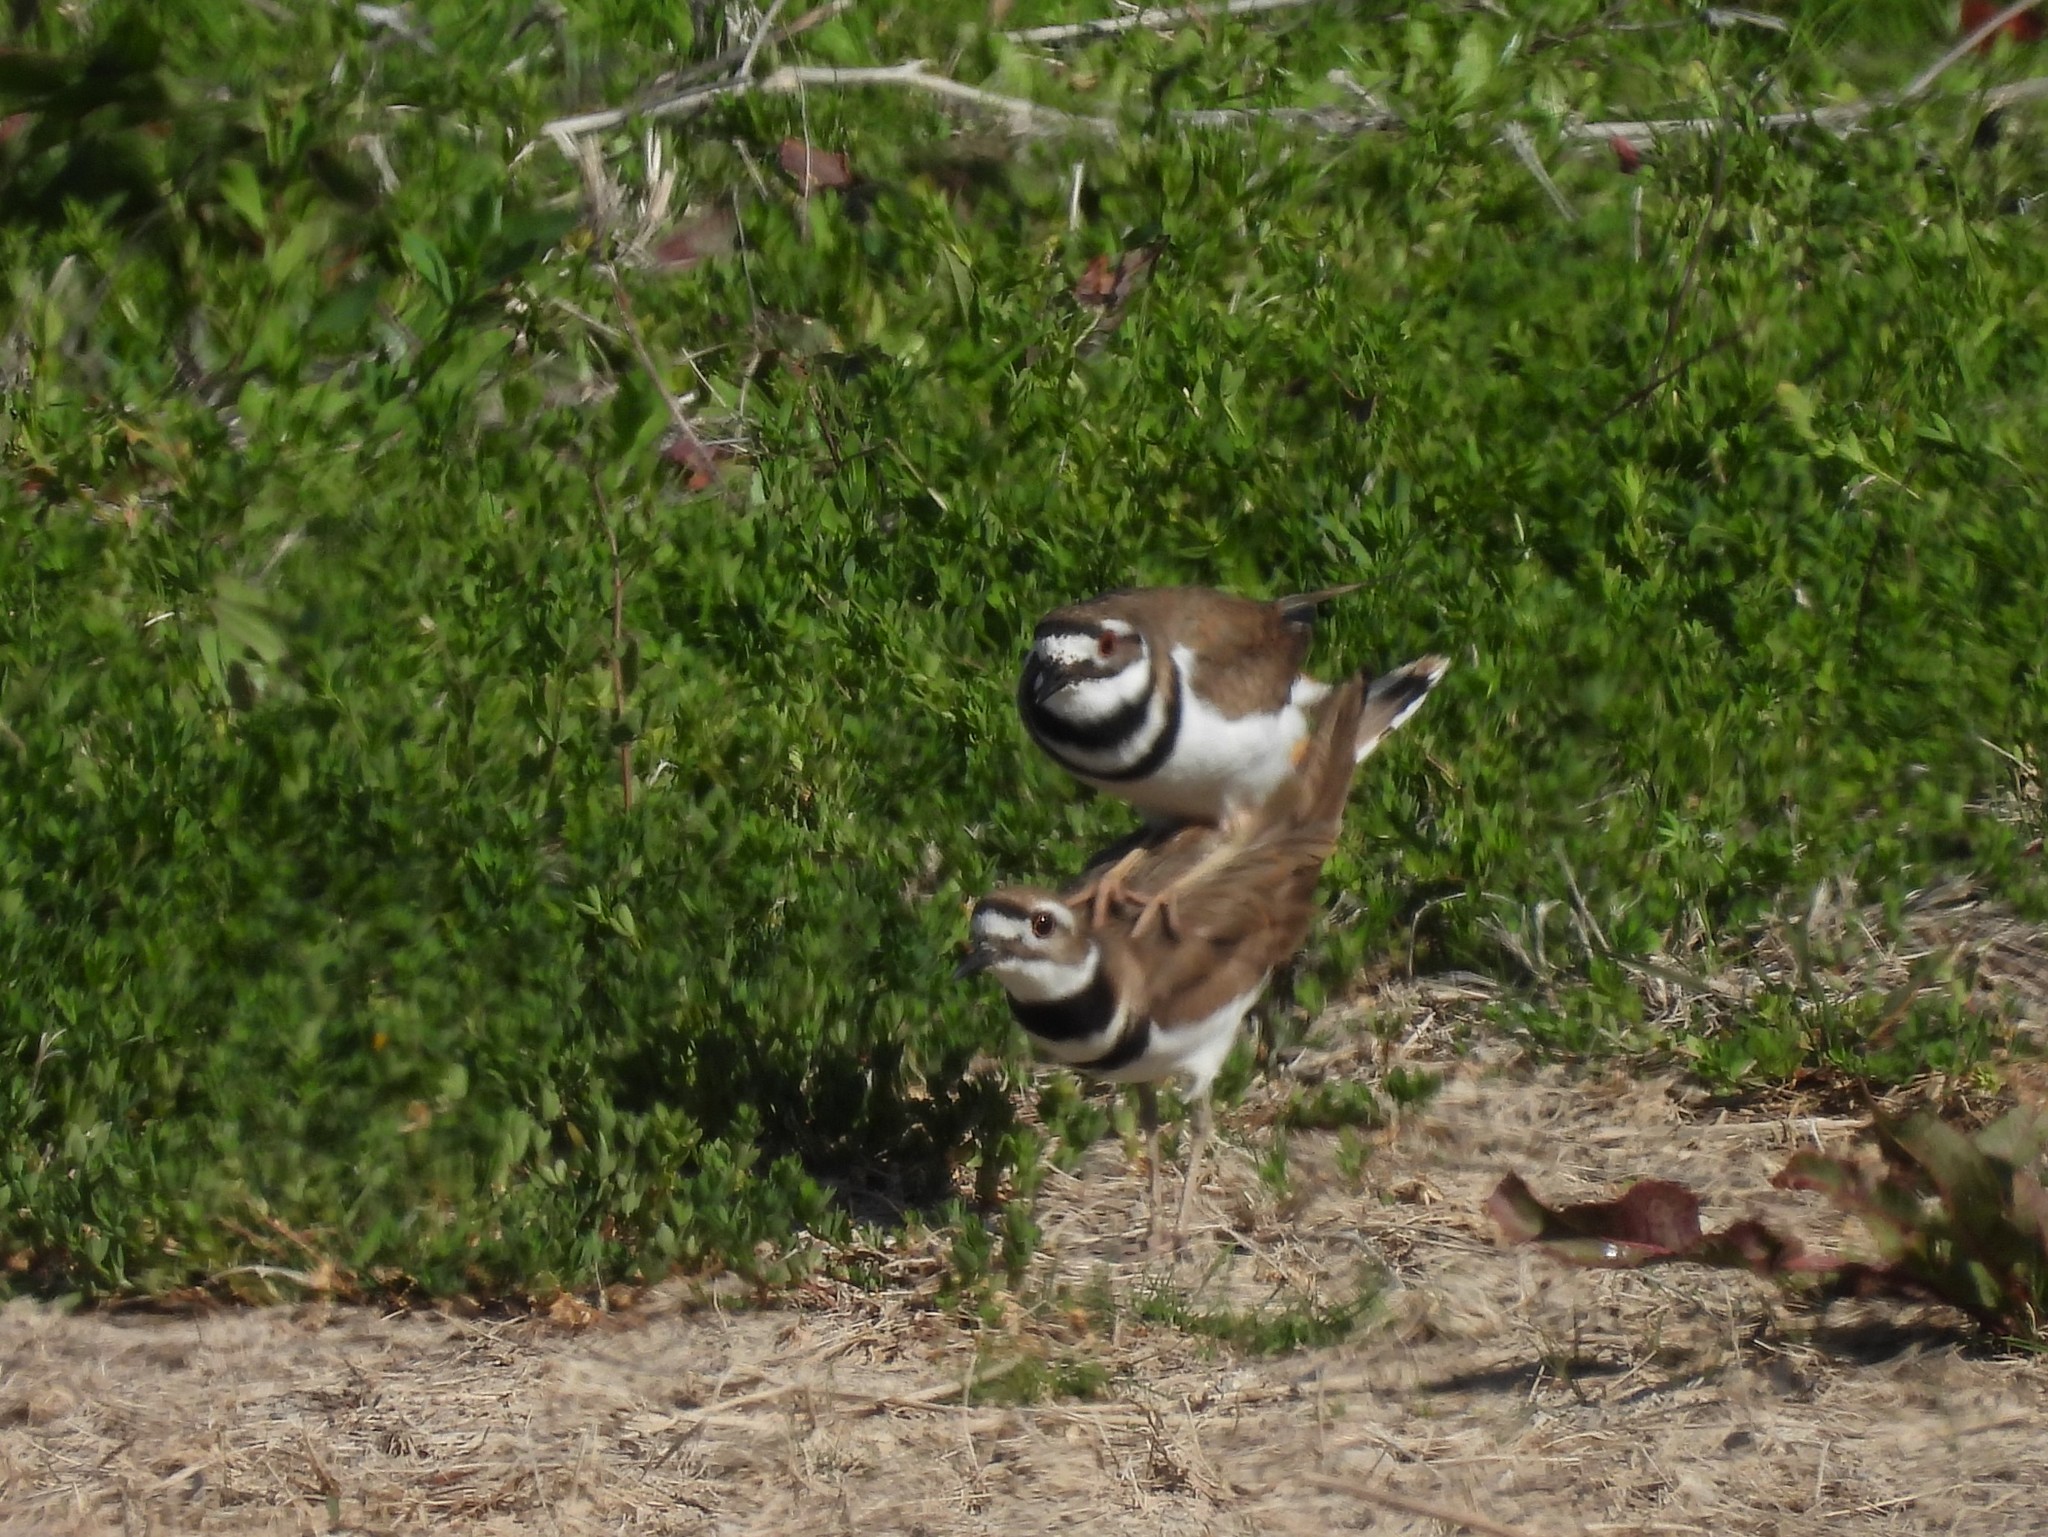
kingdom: Animalia
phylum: Chordata
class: Aves
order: Charadriiformes
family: Charadriidae
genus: Charadrius
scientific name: Charadrius vociferus
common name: Killdeer
